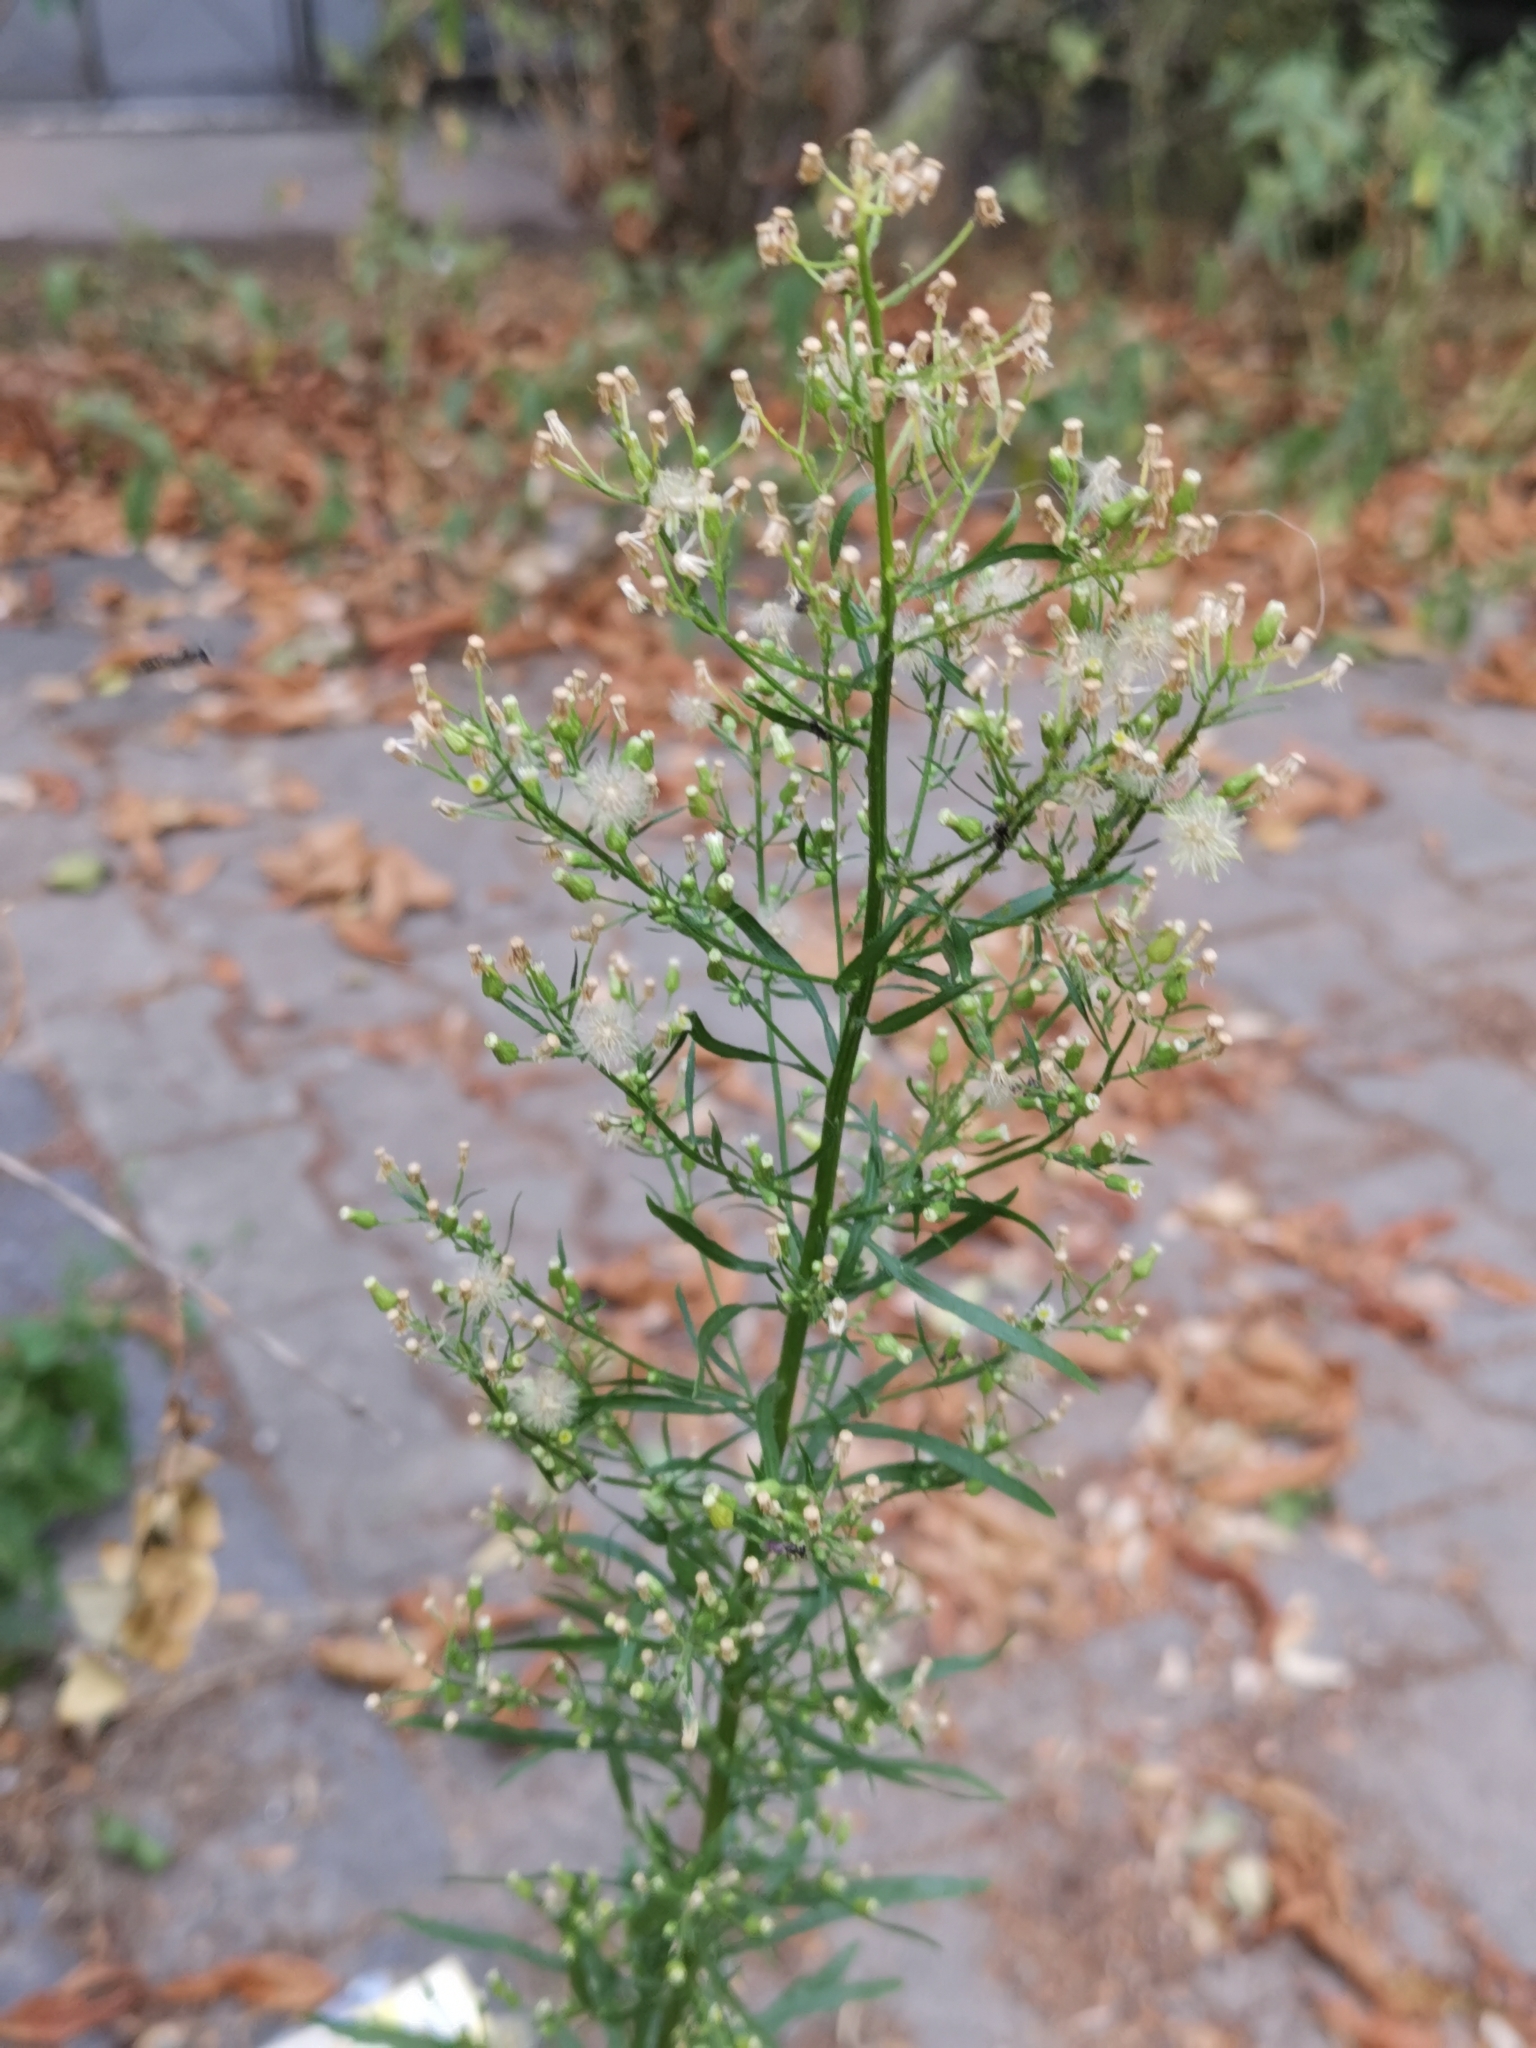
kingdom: Plantae
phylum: Tracheophyta
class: Magnoliopsida
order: Asterales
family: Asteraceae
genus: Erigeron
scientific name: Erigeron canadensis
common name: Canadian fleabane
